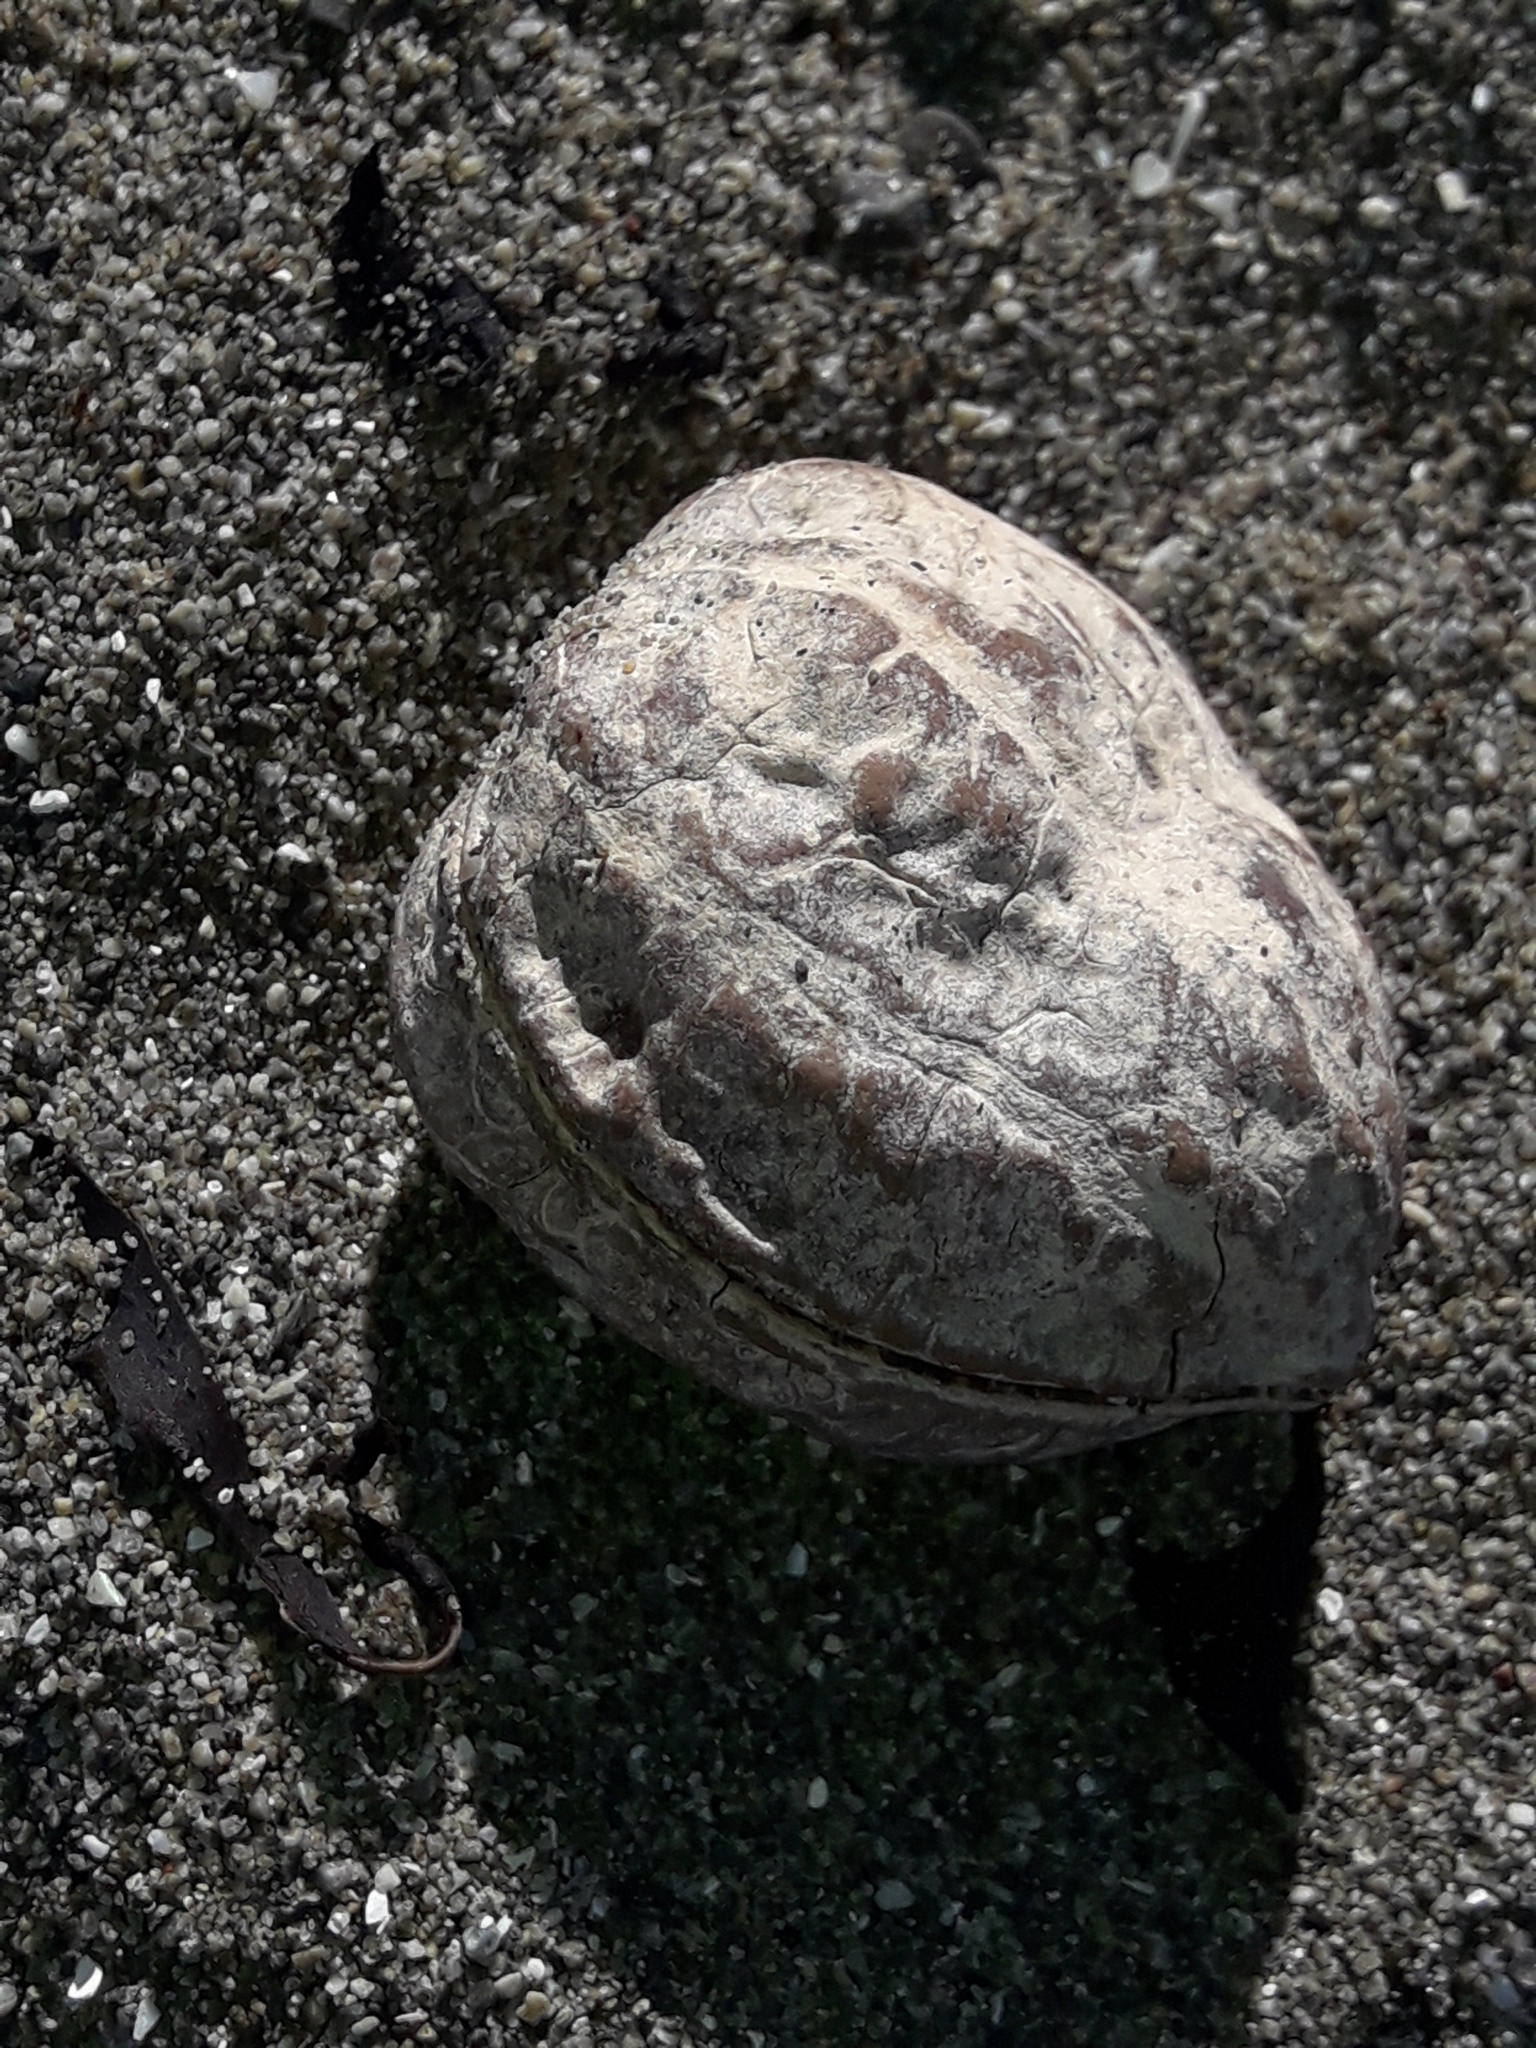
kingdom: Plantae
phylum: Tracheophyta
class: Magnoliopsida
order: Fagales
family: Juglandaceae
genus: Juglans
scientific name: Juglans regia
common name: Walnut
